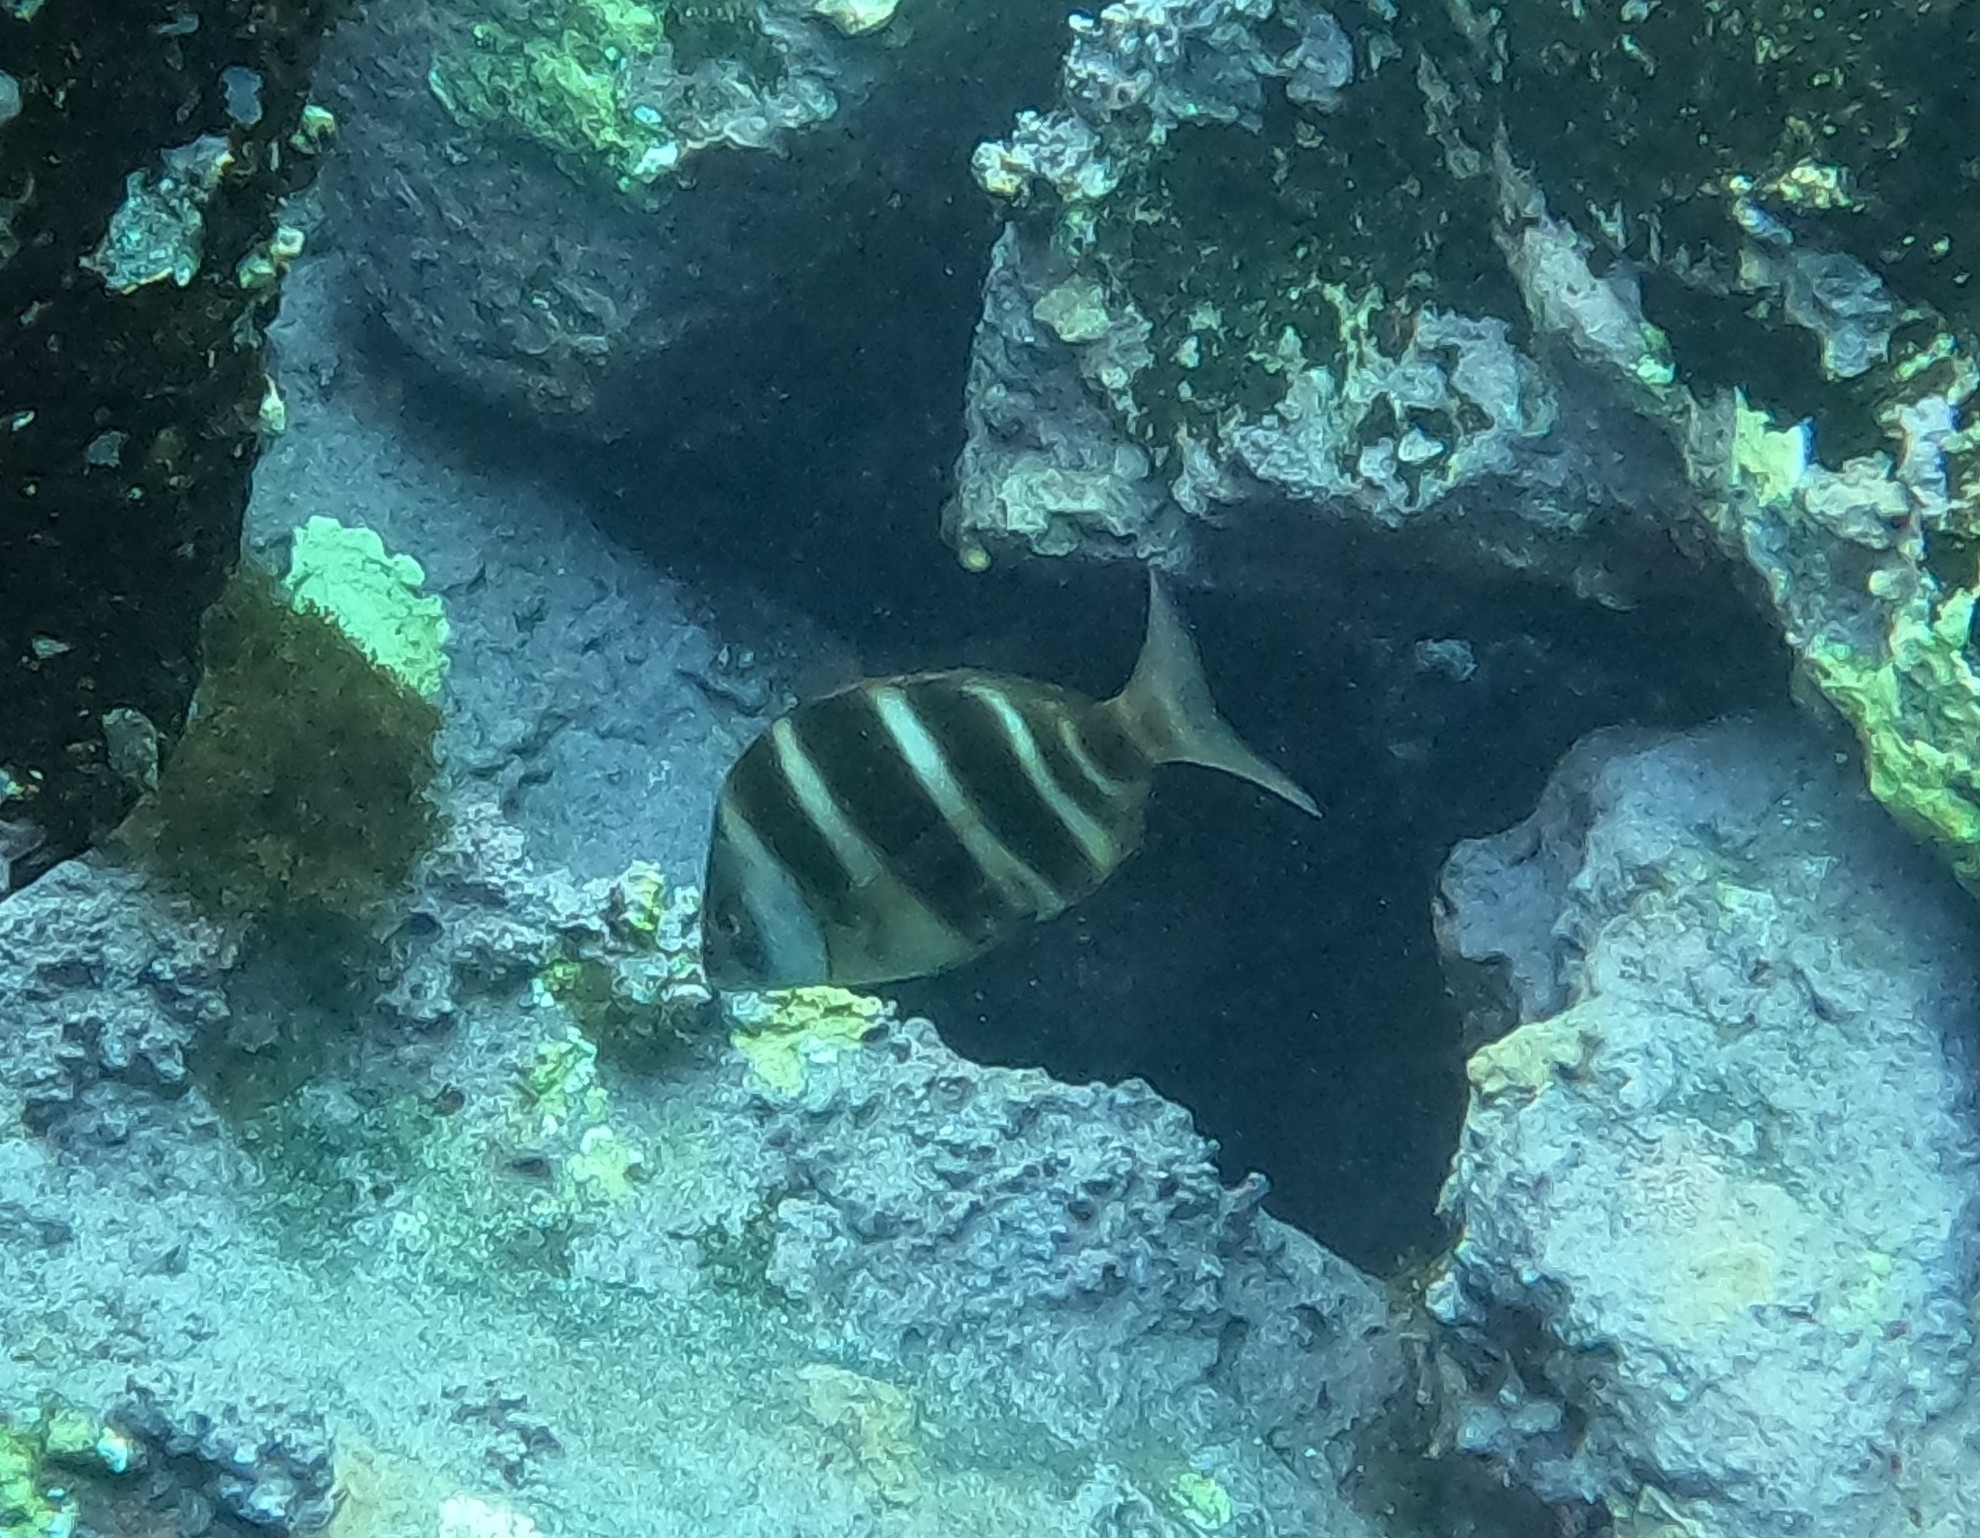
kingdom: Animalia
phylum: Chordata
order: Perciformes
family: Sparidae
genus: Diplodus
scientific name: Diplodus cervinus
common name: Oman porgy
